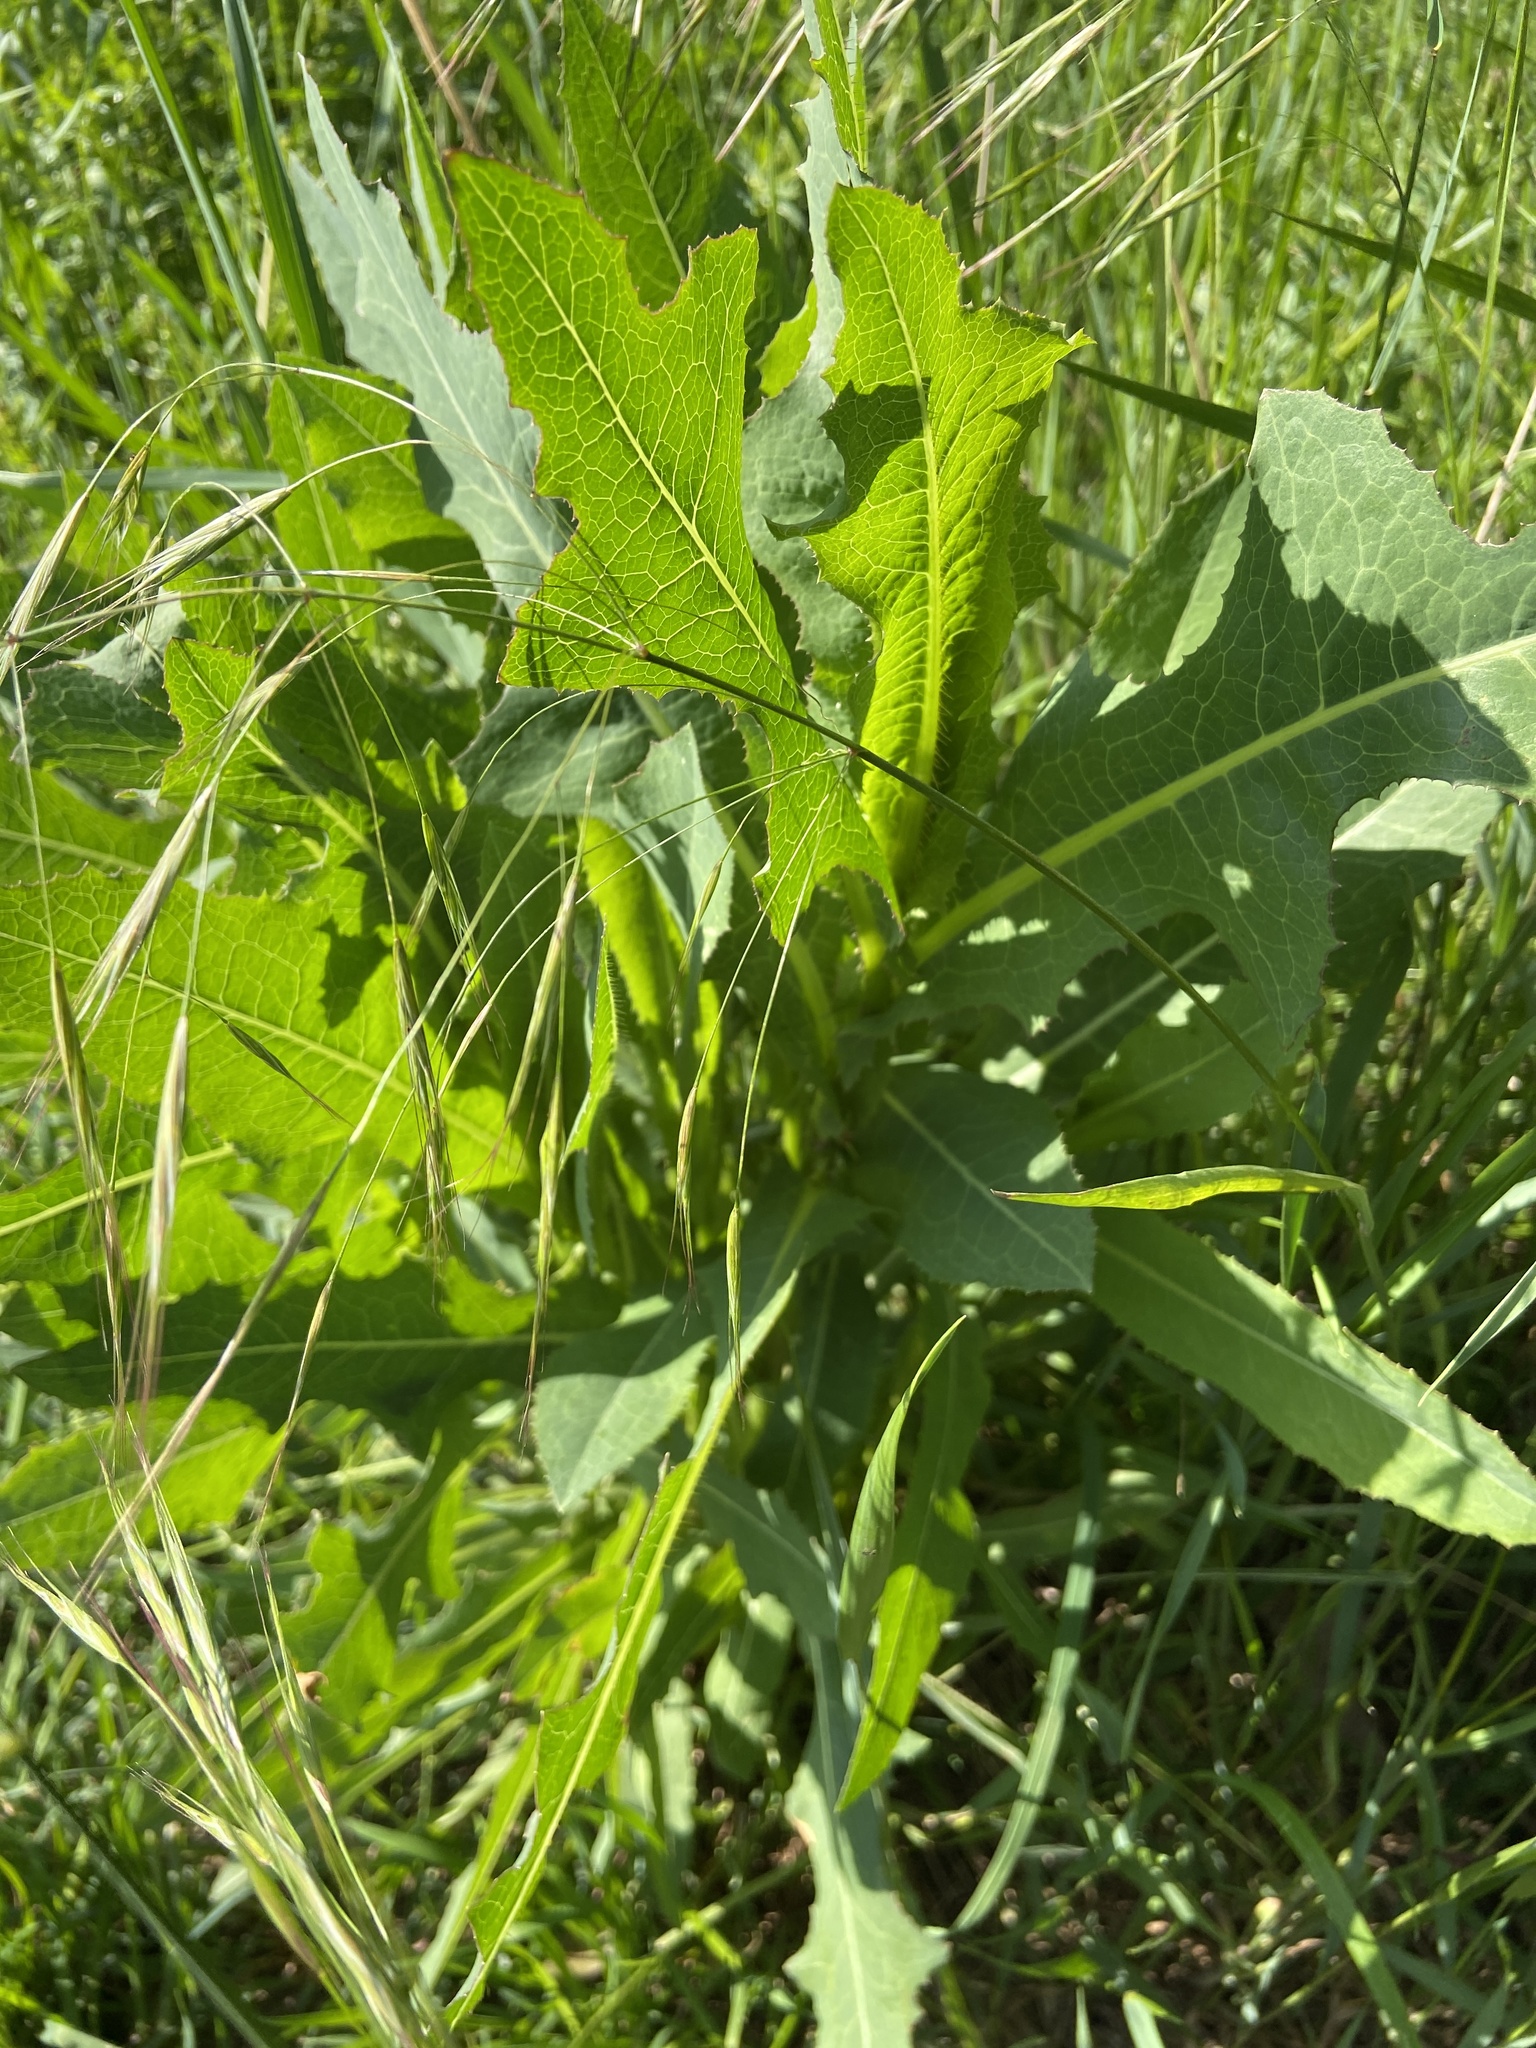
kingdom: Plantae
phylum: Tracheophyta
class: Magnoliopsida
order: Asterales
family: Asteraceae
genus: Lactuca
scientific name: Lactuca serriola
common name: Prickly lettuce
